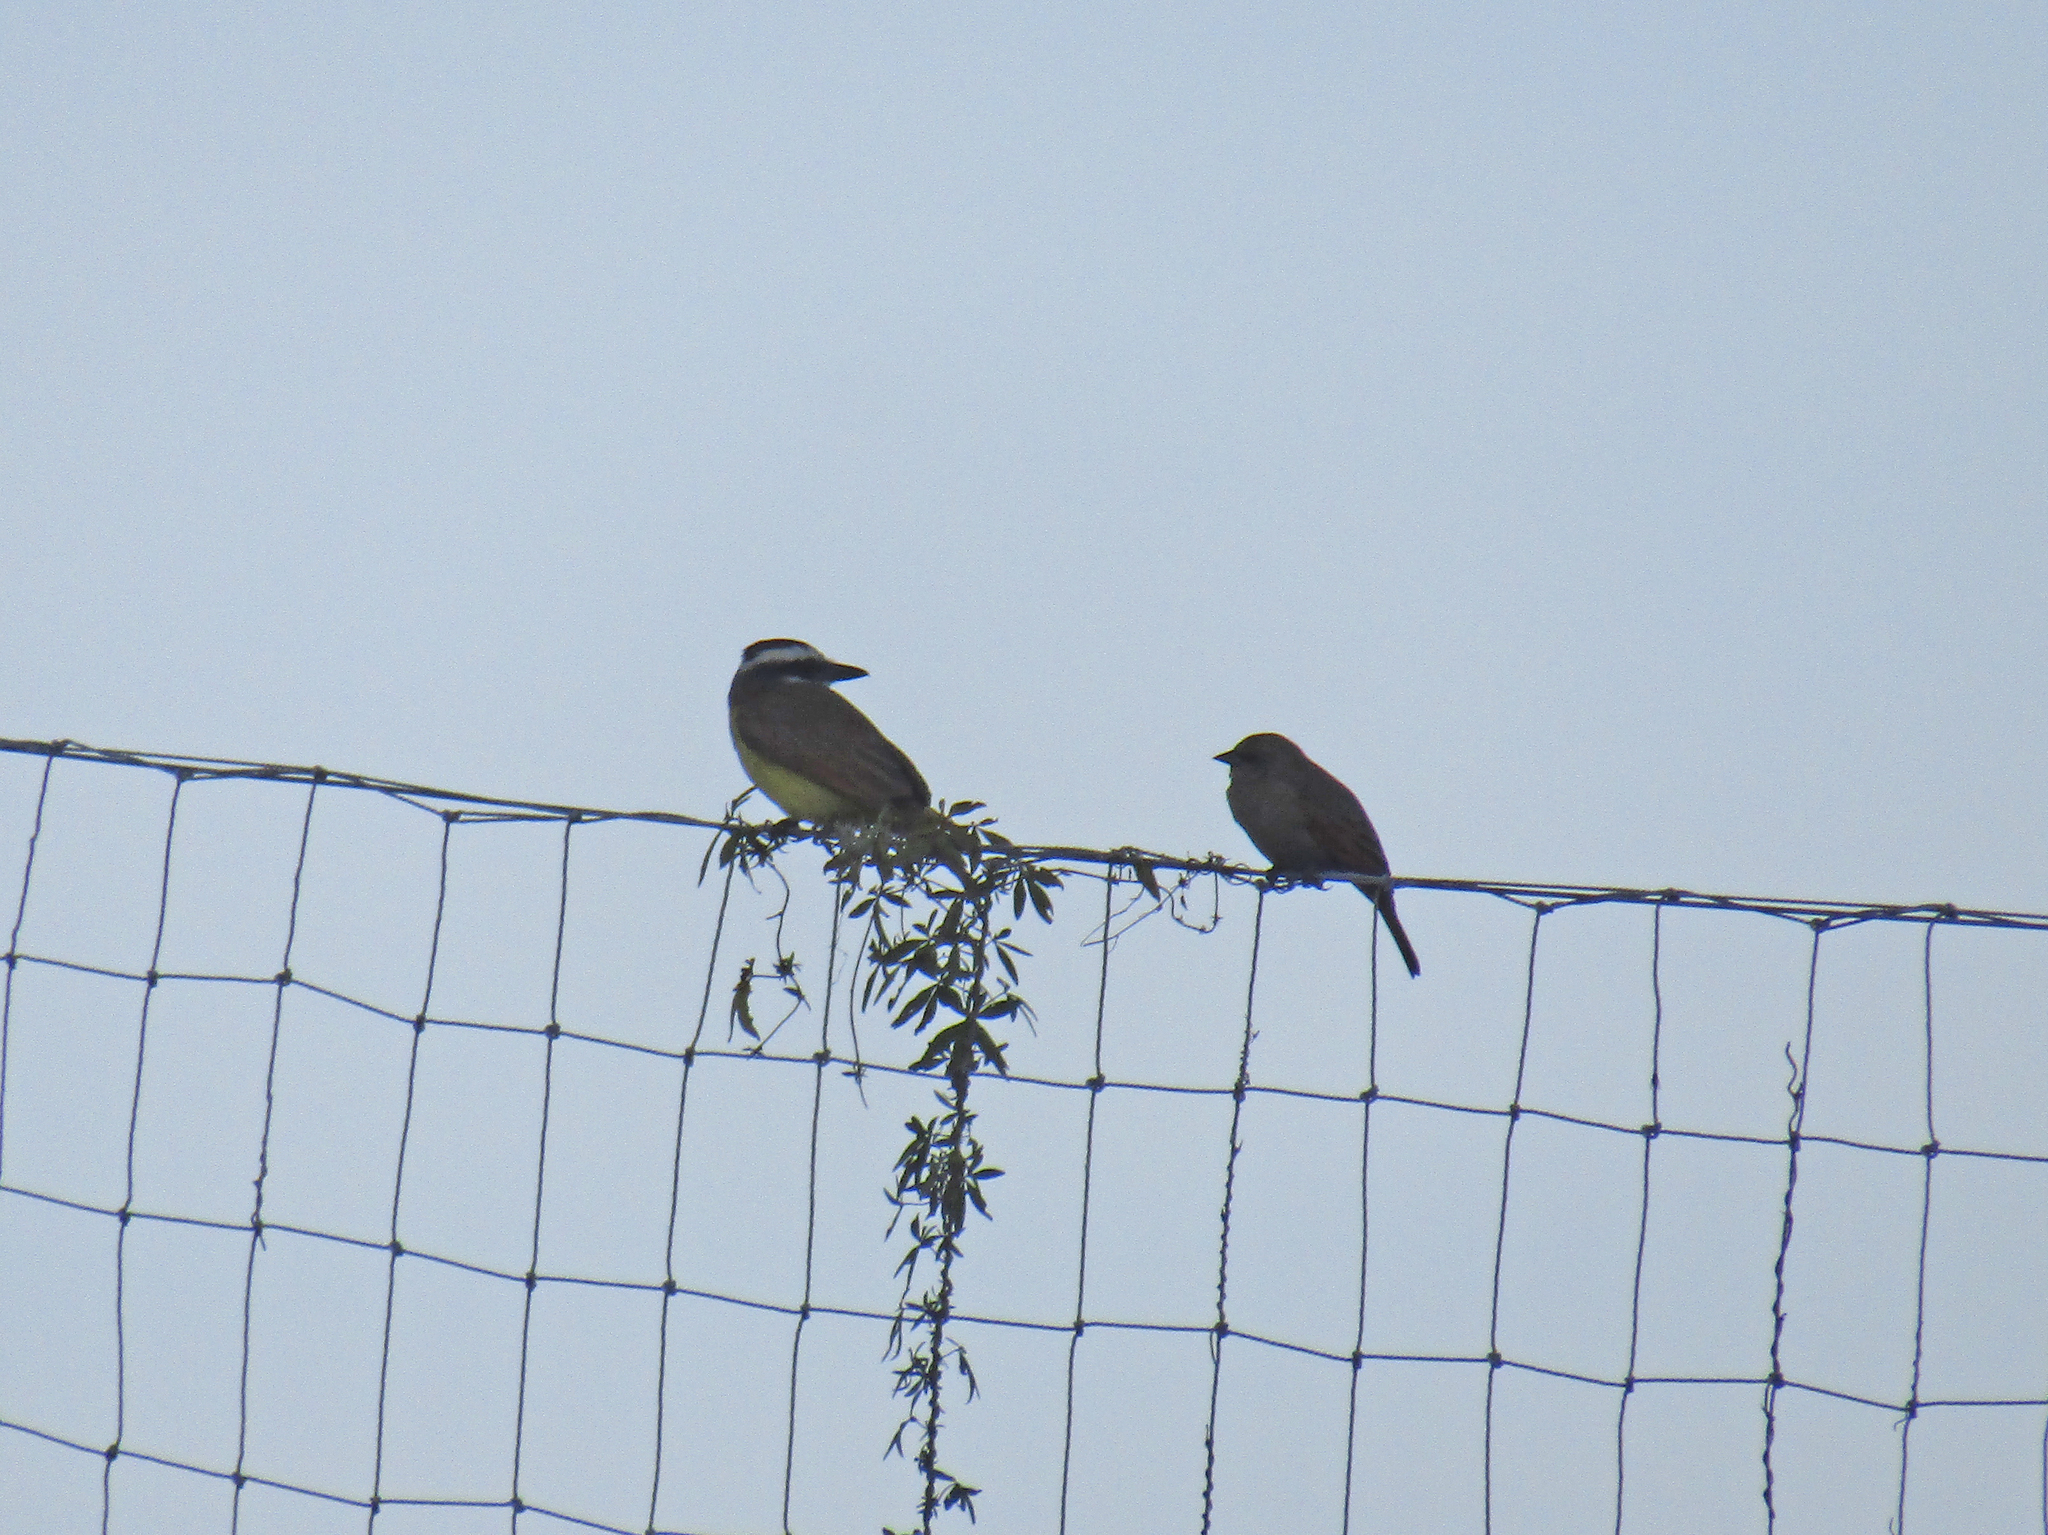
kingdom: Animalia
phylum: Chordata
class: Aves
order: Passeriformes
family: Icteridae
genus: Agelaioides
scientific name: Agelaioides badius
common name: Baywing
